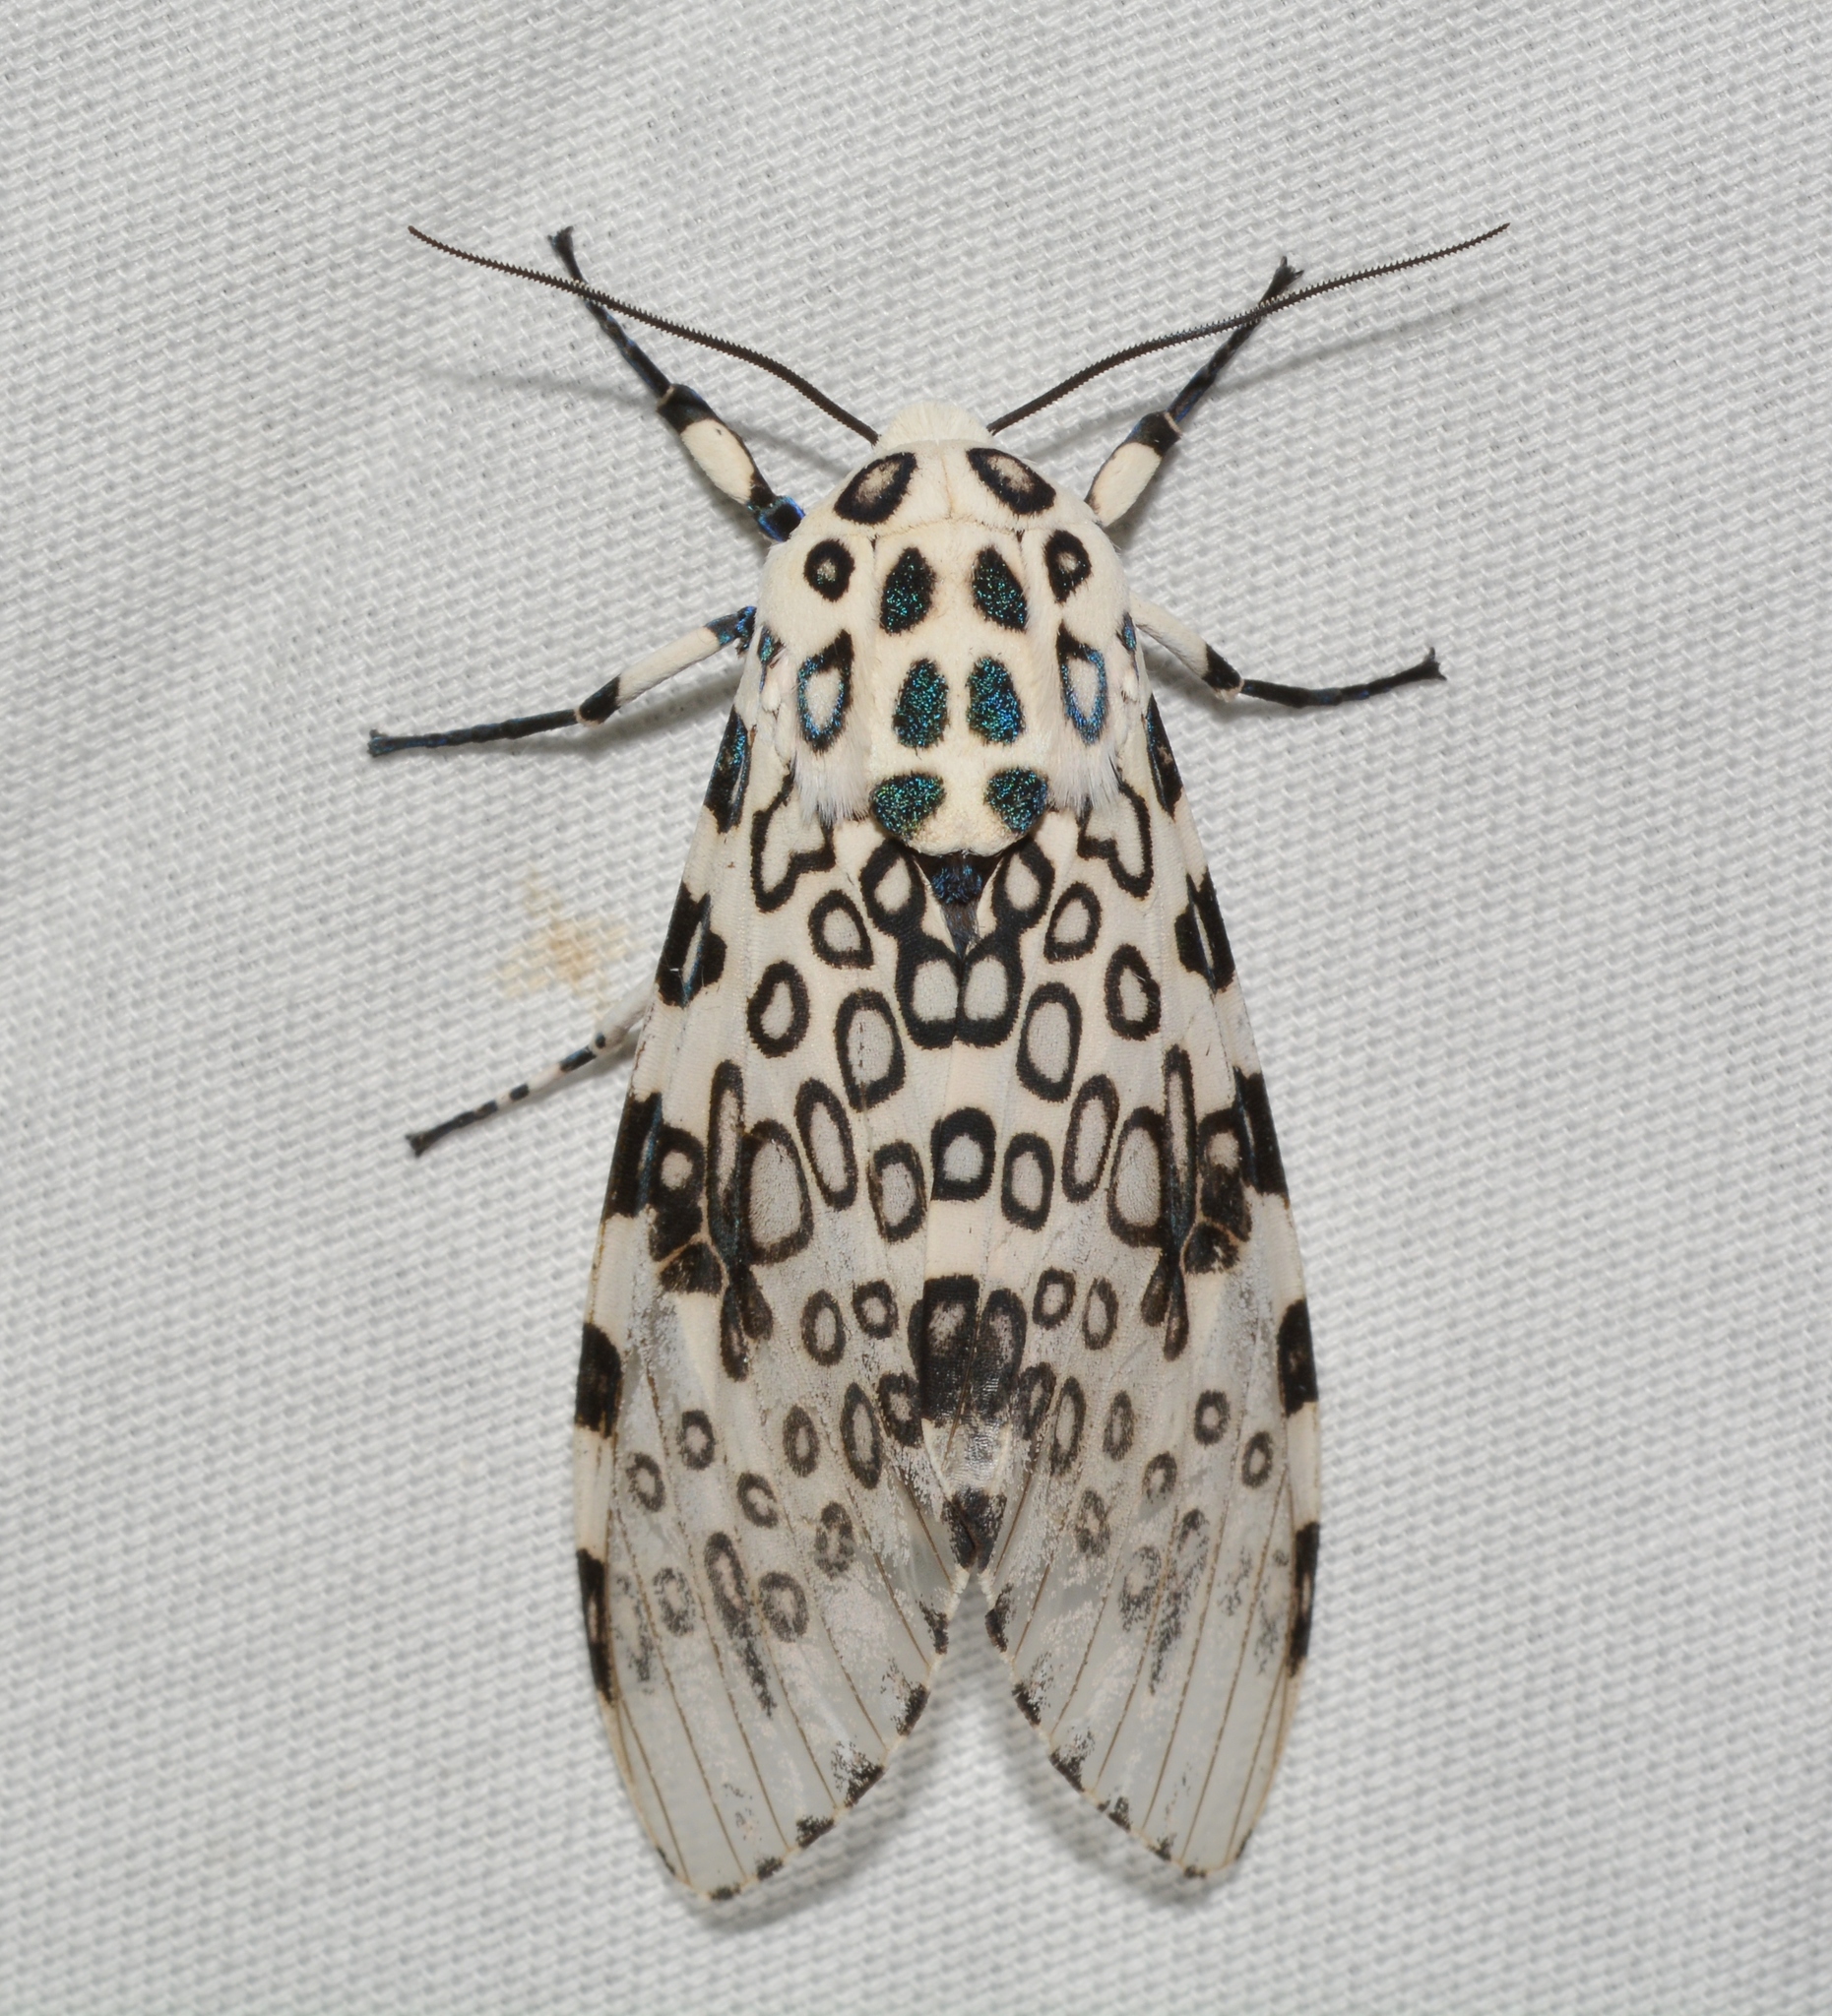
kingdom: Animalia
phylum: Arthropoda
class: Insecta
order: Lepidoptera
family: Erebidae
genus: Hypercompe
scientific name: Hypercompe scribonia
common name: Giant leopard moth
